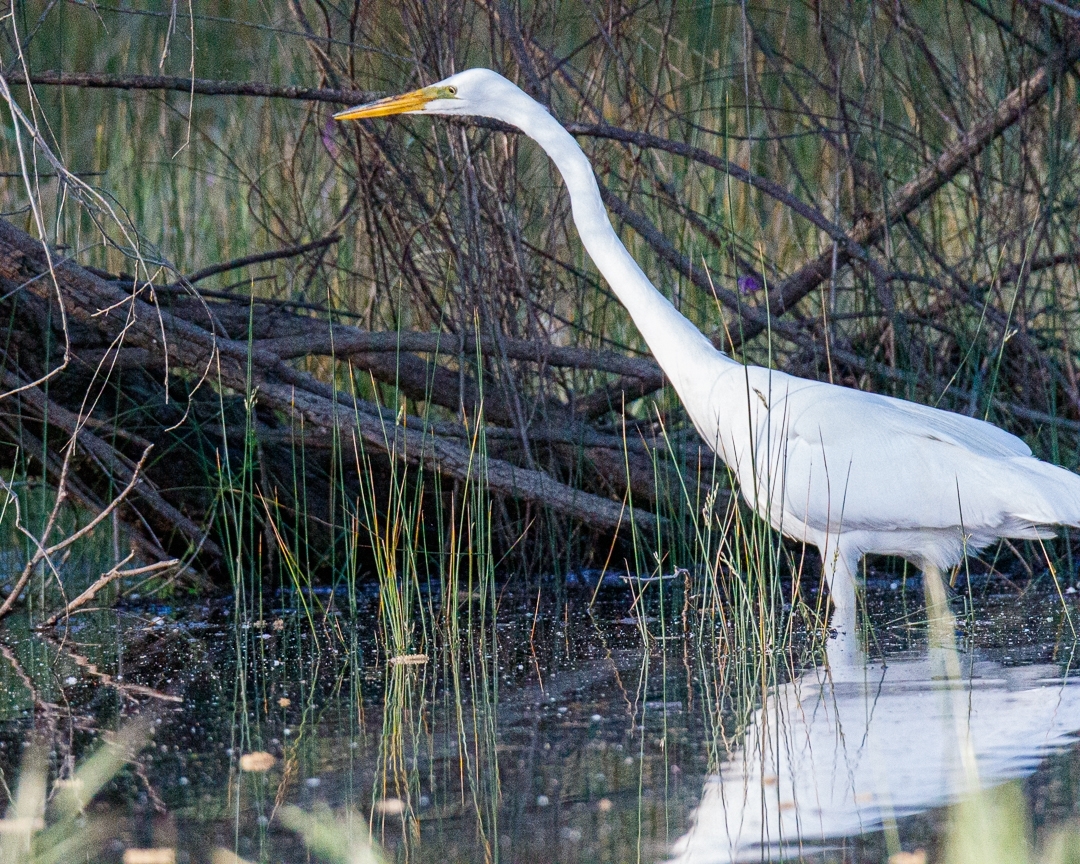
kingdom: Animalia
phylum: Chordata
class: Aves
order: Pelecaniformes
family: Ardeidae
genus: Ardea
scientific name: Ardea alba
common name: Great egret
